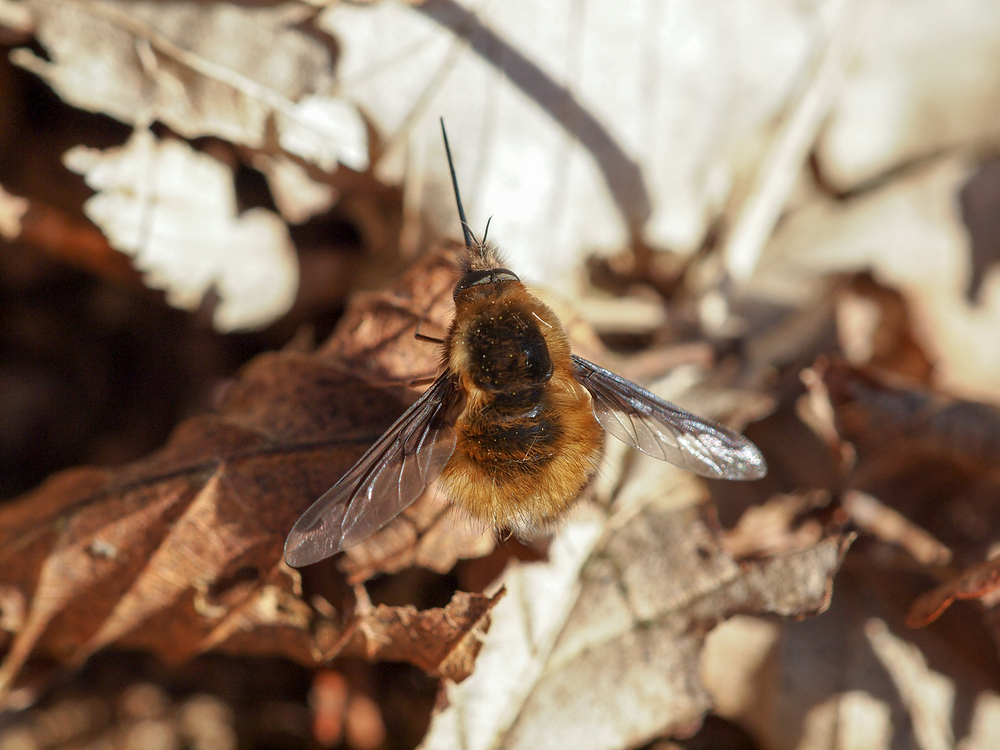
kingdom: Animalia
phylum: Arthropoda
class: Insecta
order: Diptera
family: Bombyliidae
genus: Bombylius
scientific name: Bombylius major
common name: Bee fly
